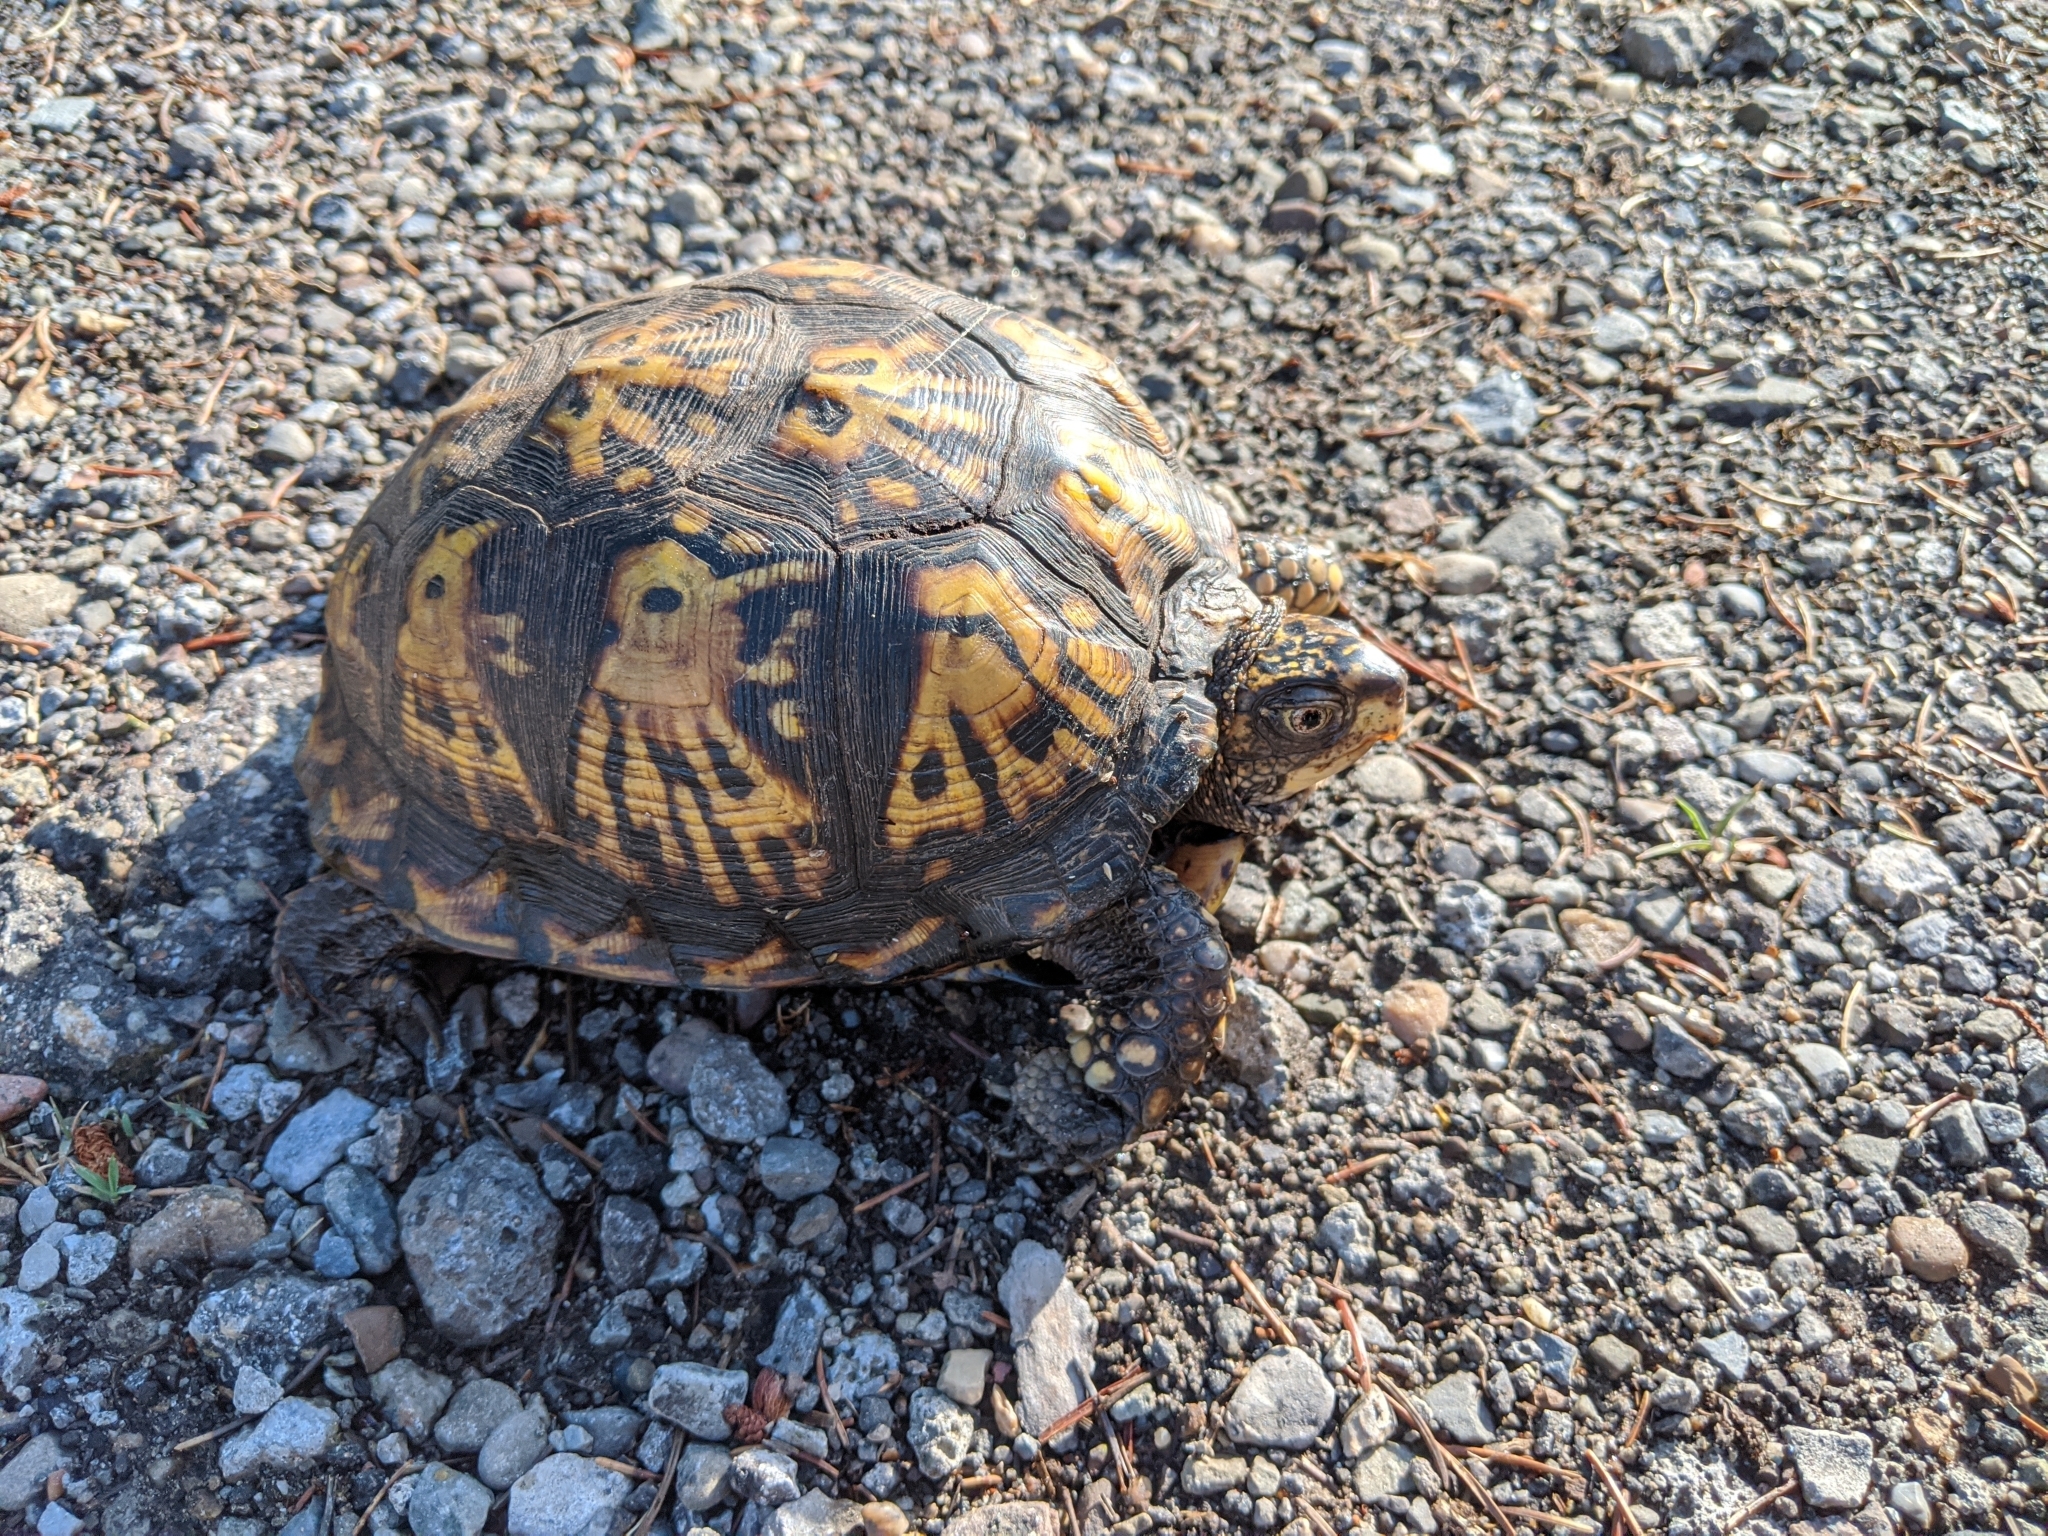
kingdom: Animalia
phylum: Chordata
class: Testudines
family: Emydidae
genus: Terrapene
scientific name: Terrapene carolina
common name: Common box turtle
